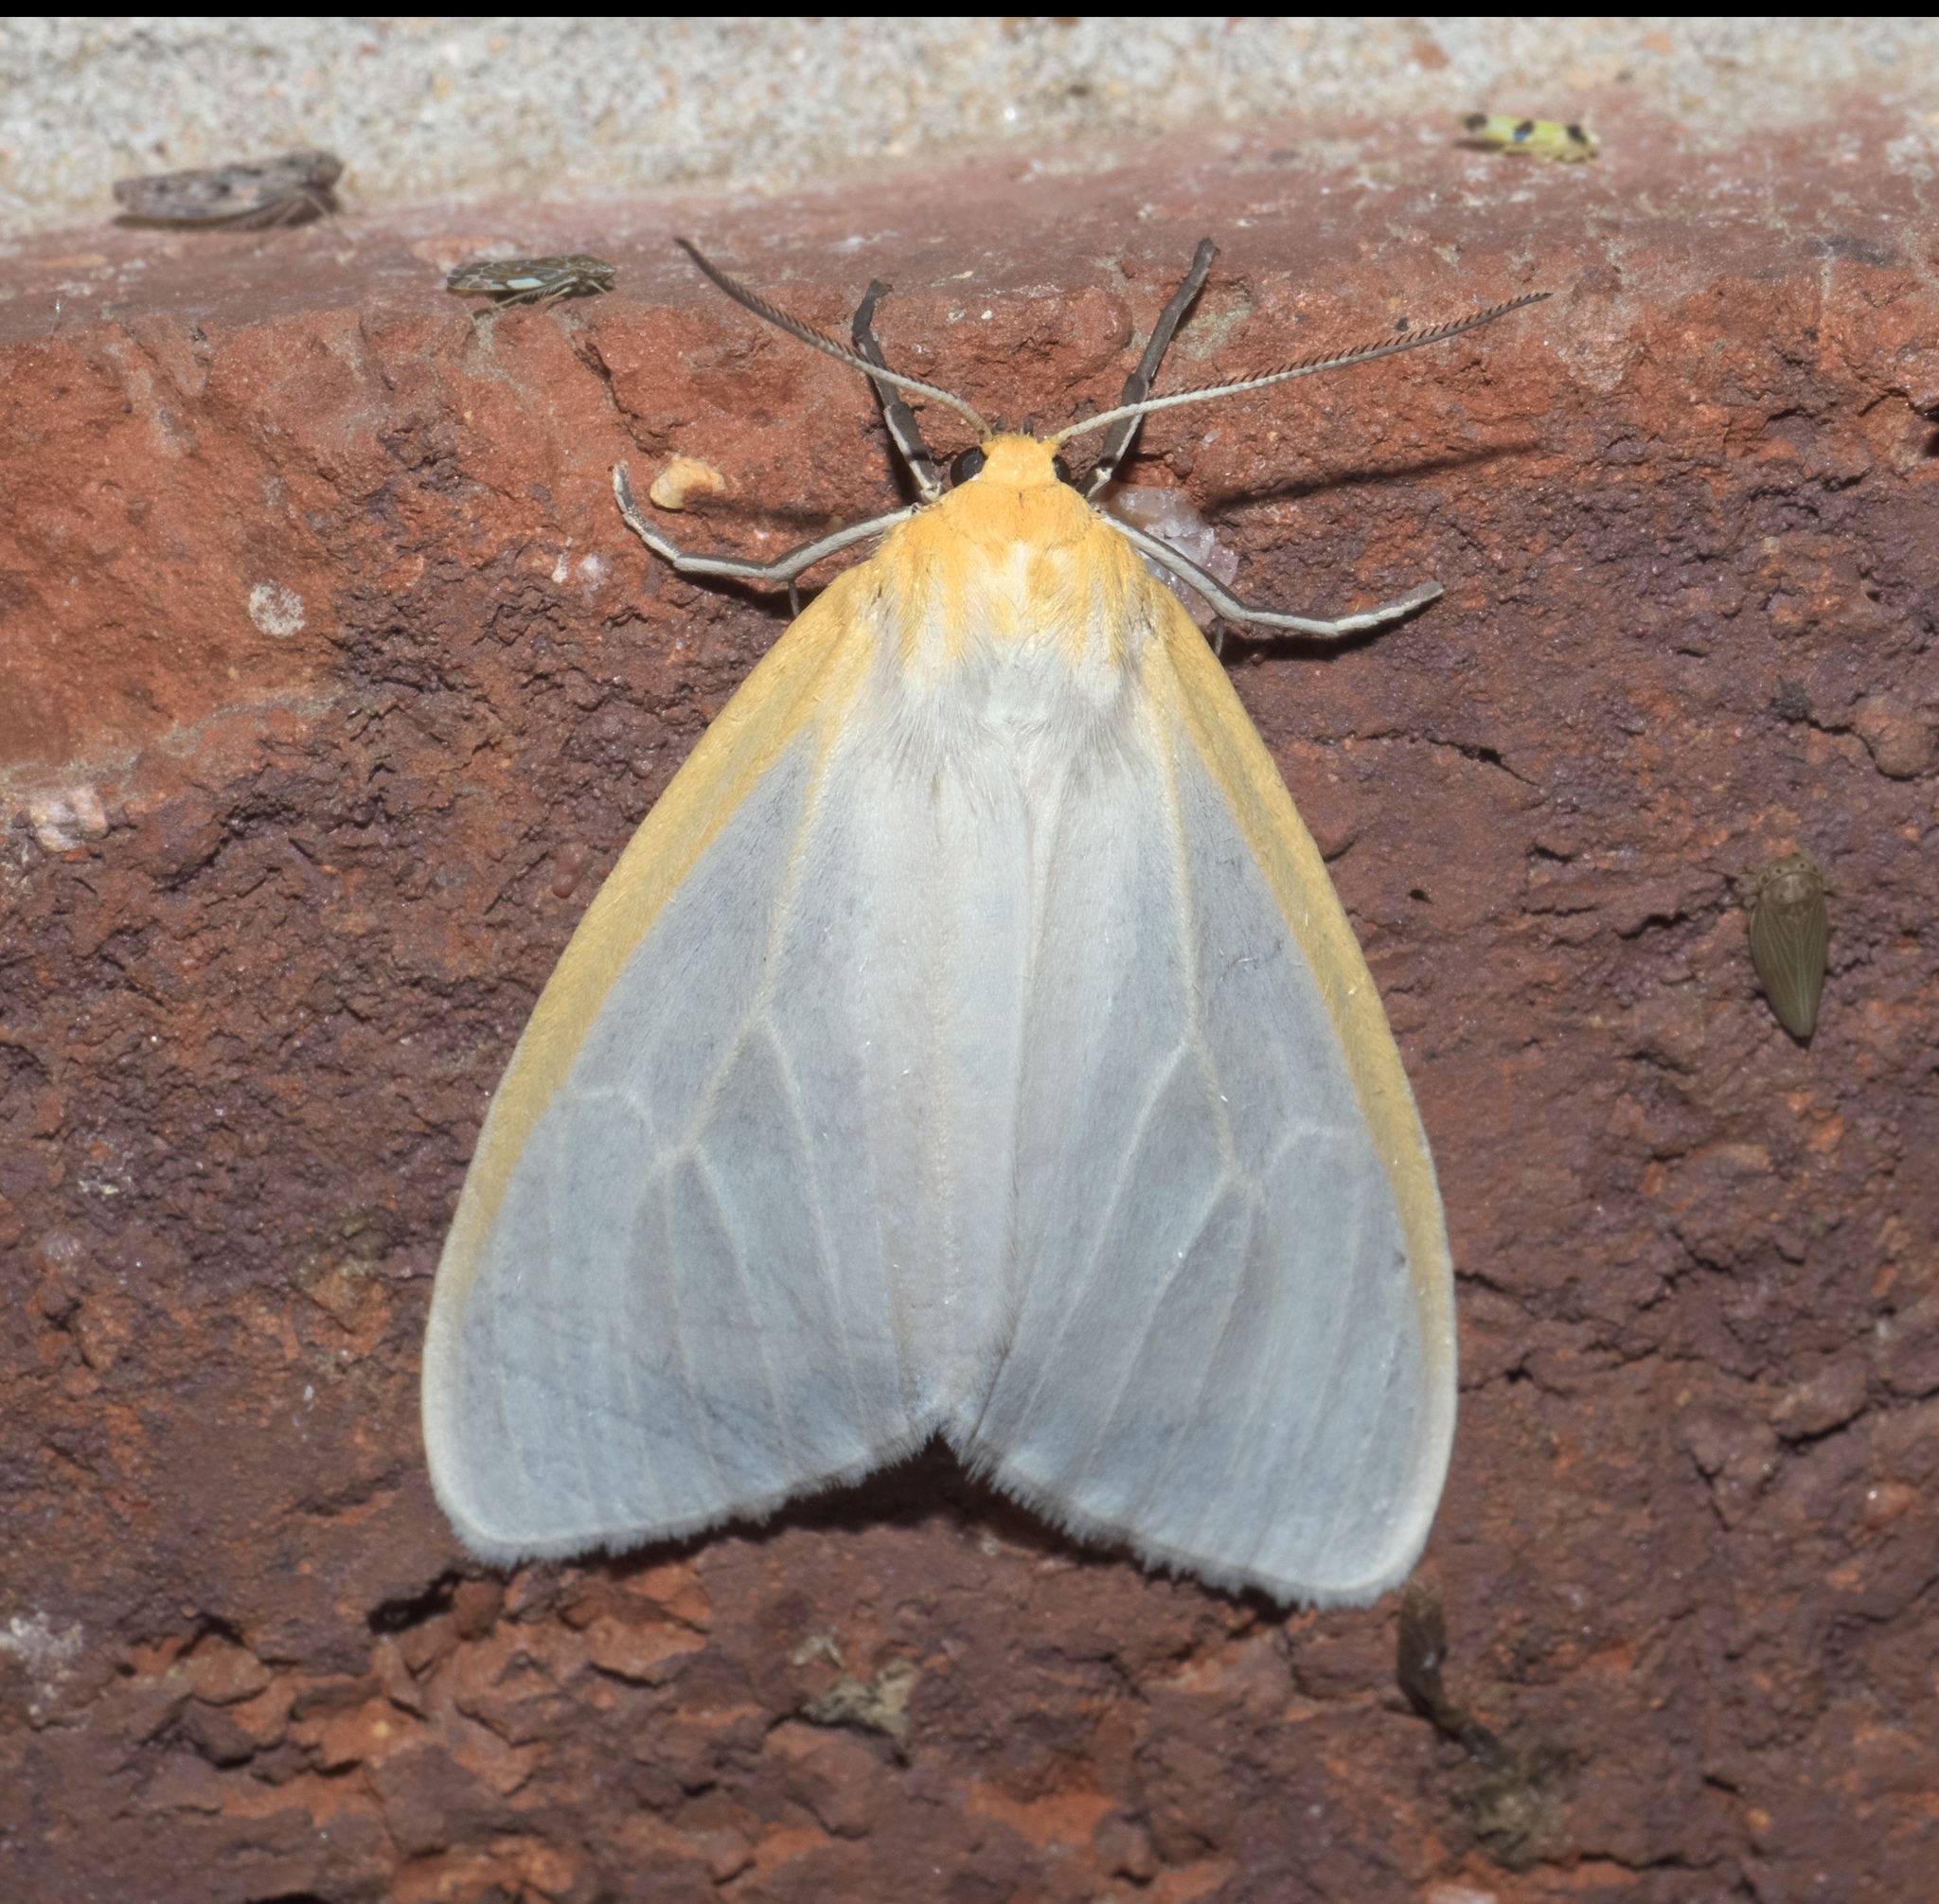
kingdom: Animalia
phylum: Arthropoda
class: Insecta
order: Lepidoptera
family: Erebidae
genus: Cycnia
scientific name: Cycnia tenera
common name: Delicate cycnia moth
